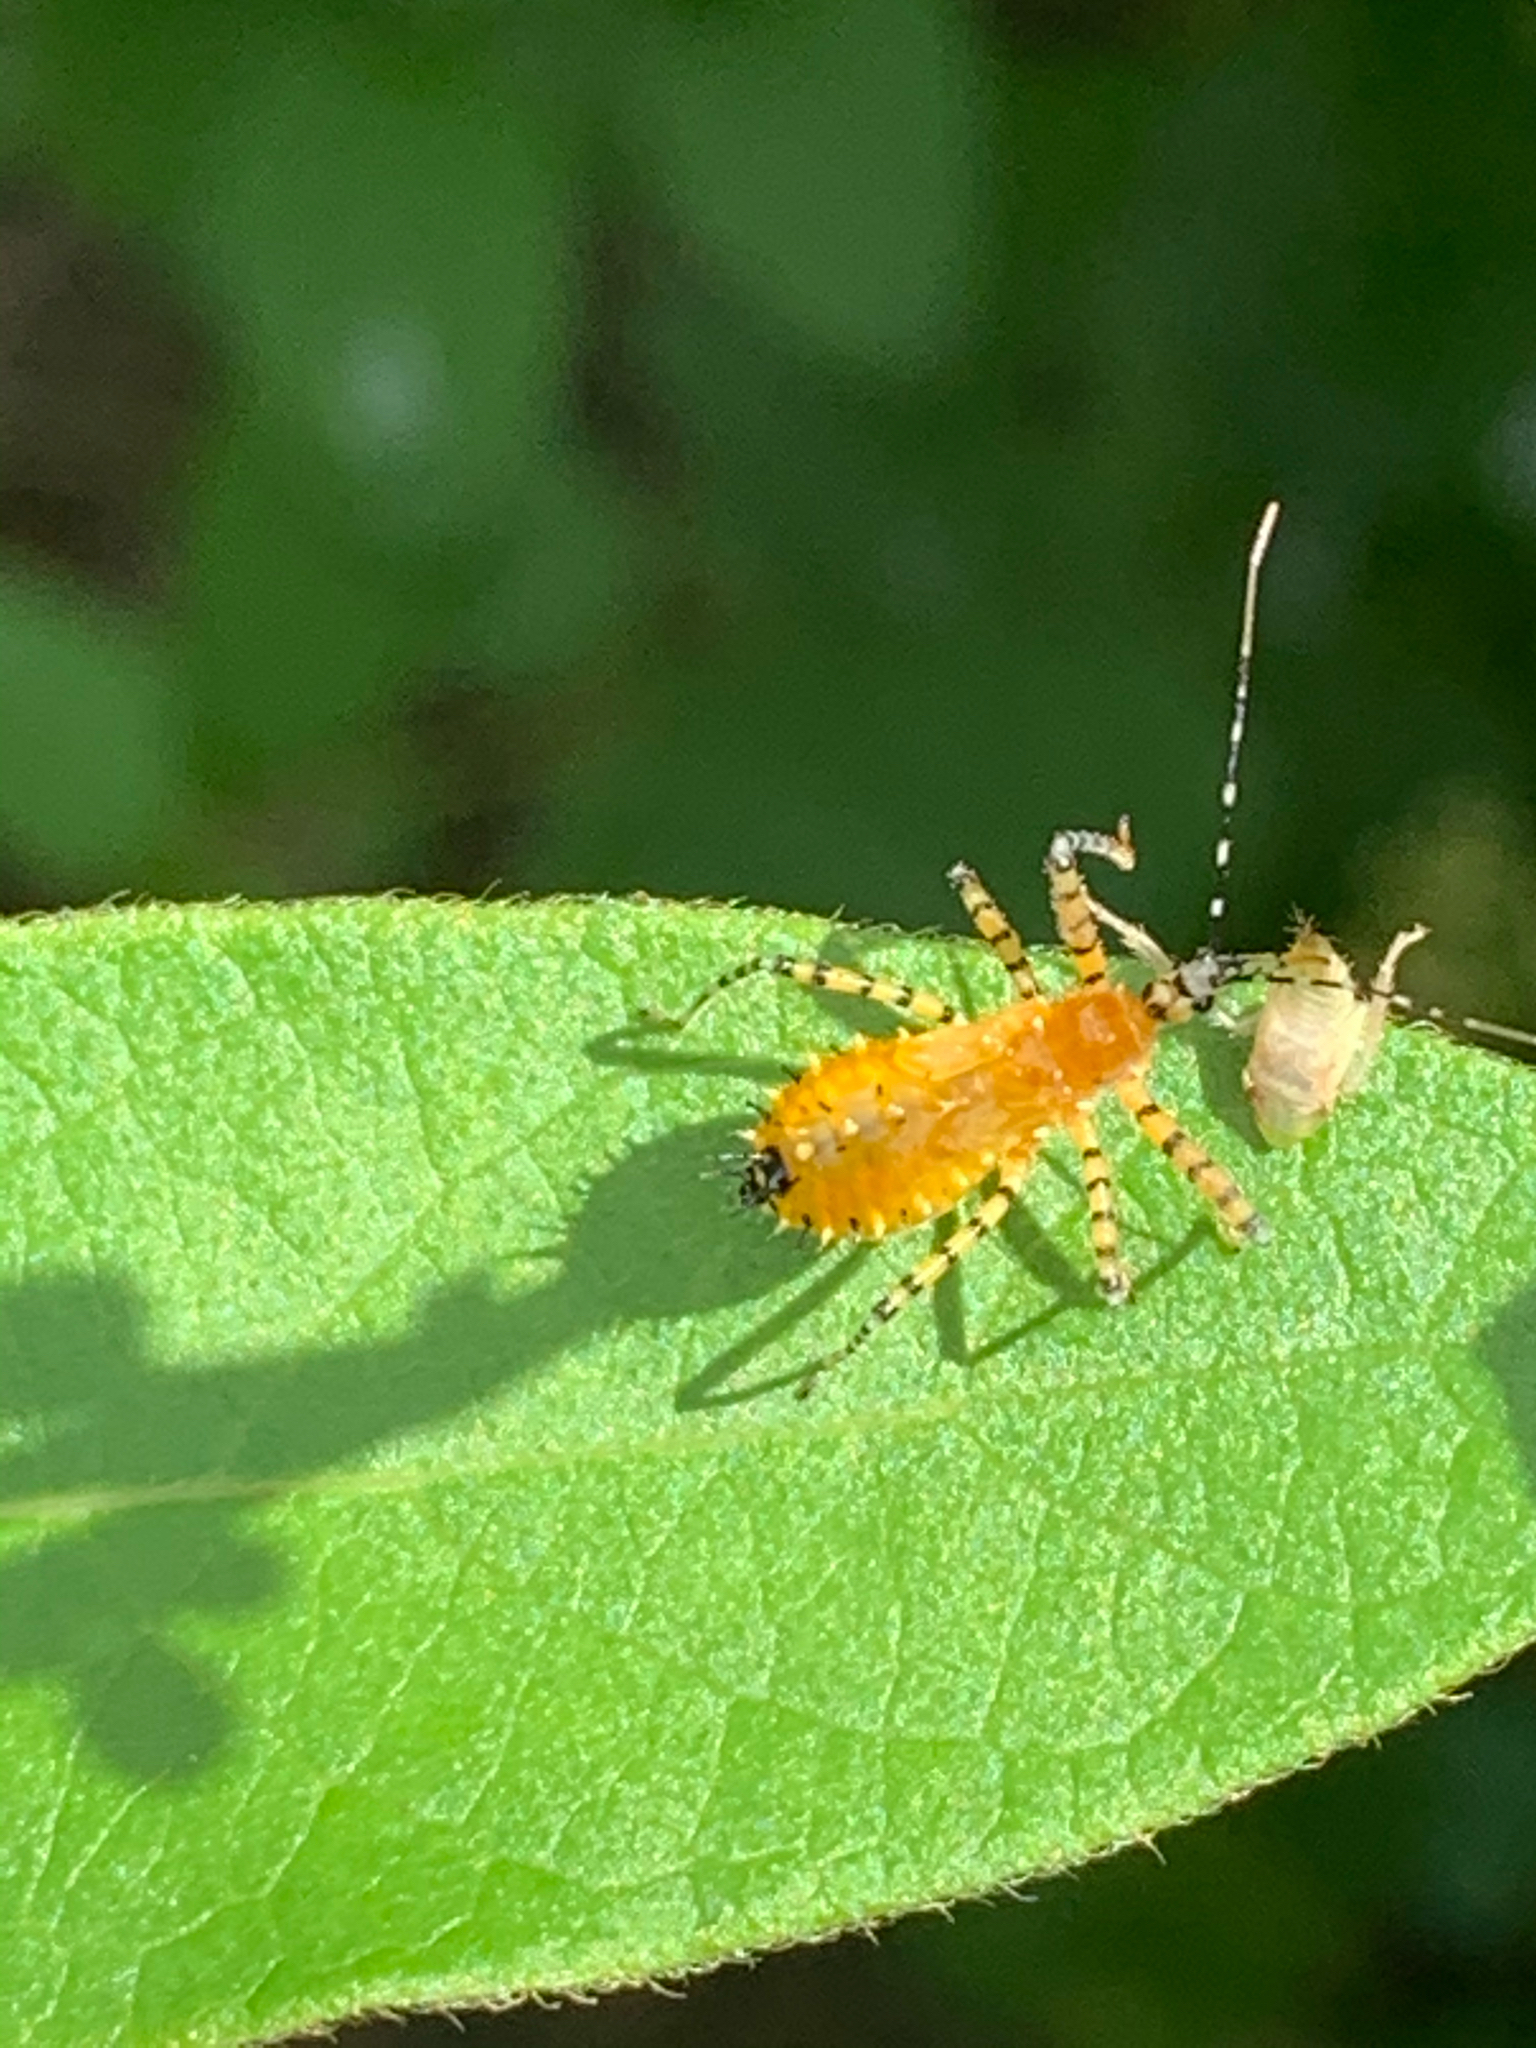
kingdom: Animalia
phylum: Arthropoda
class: Insecta
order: Hemiptera
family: Reduviidae
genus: Pselliopus
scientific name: Pselliopus barberi
